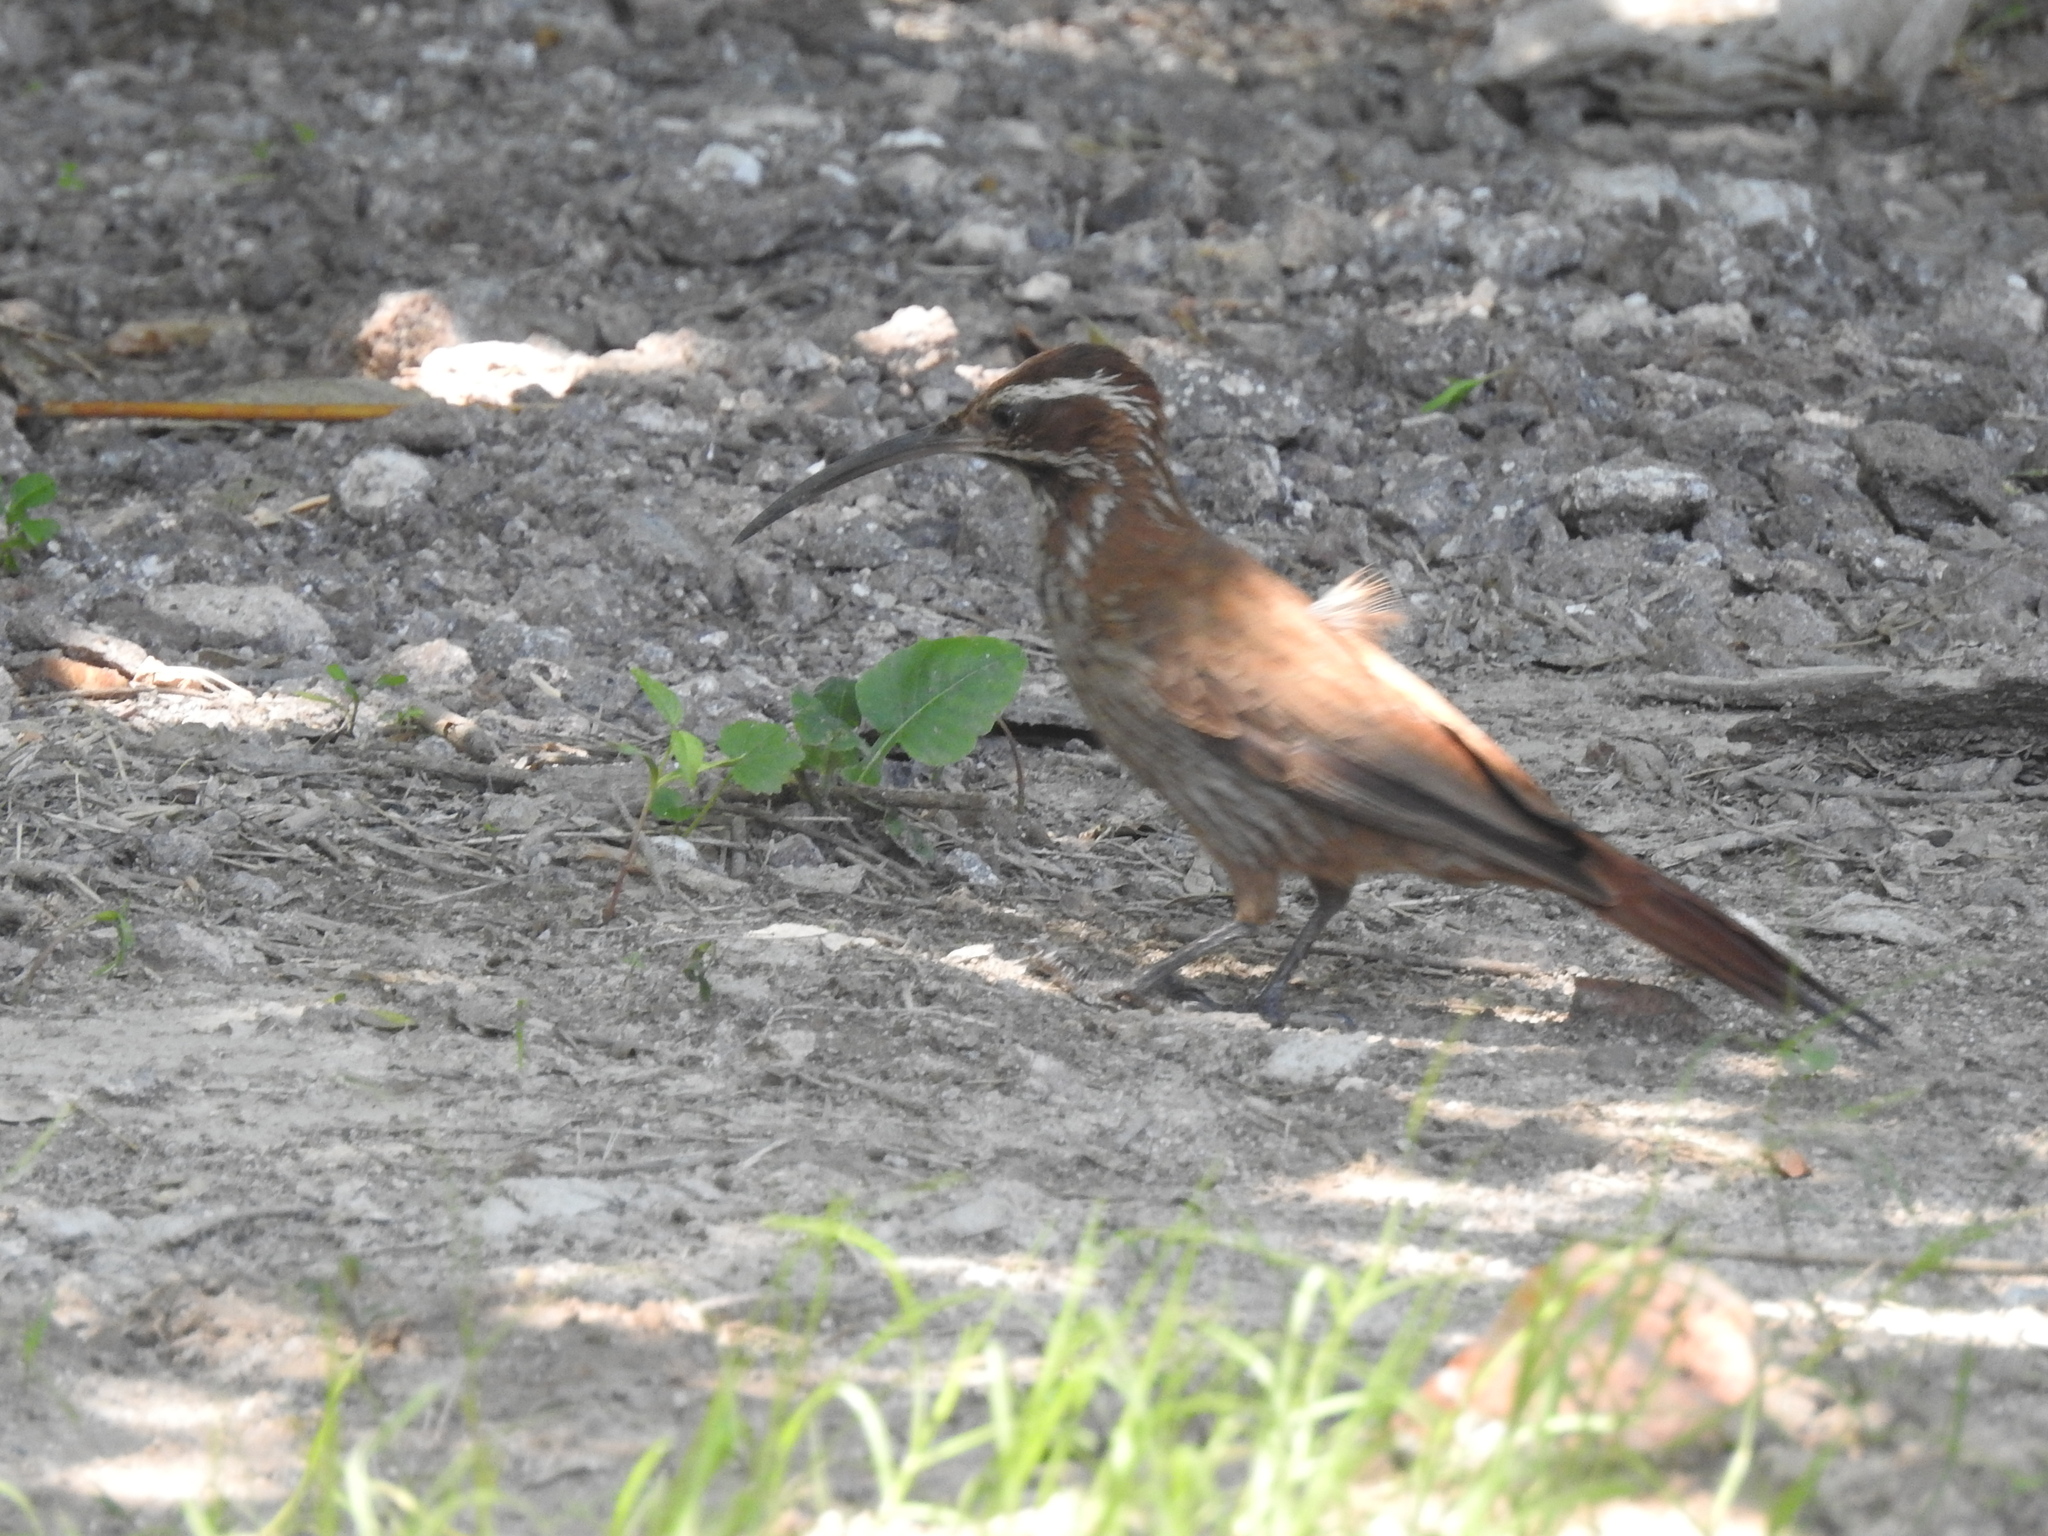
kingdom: Animalia
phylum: Chordata
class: Aves
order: Passeriformes
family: Furnariidae
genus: Drymornis
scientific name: Drymornis bridgesii
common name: Scimitar-billed woodcreeper
